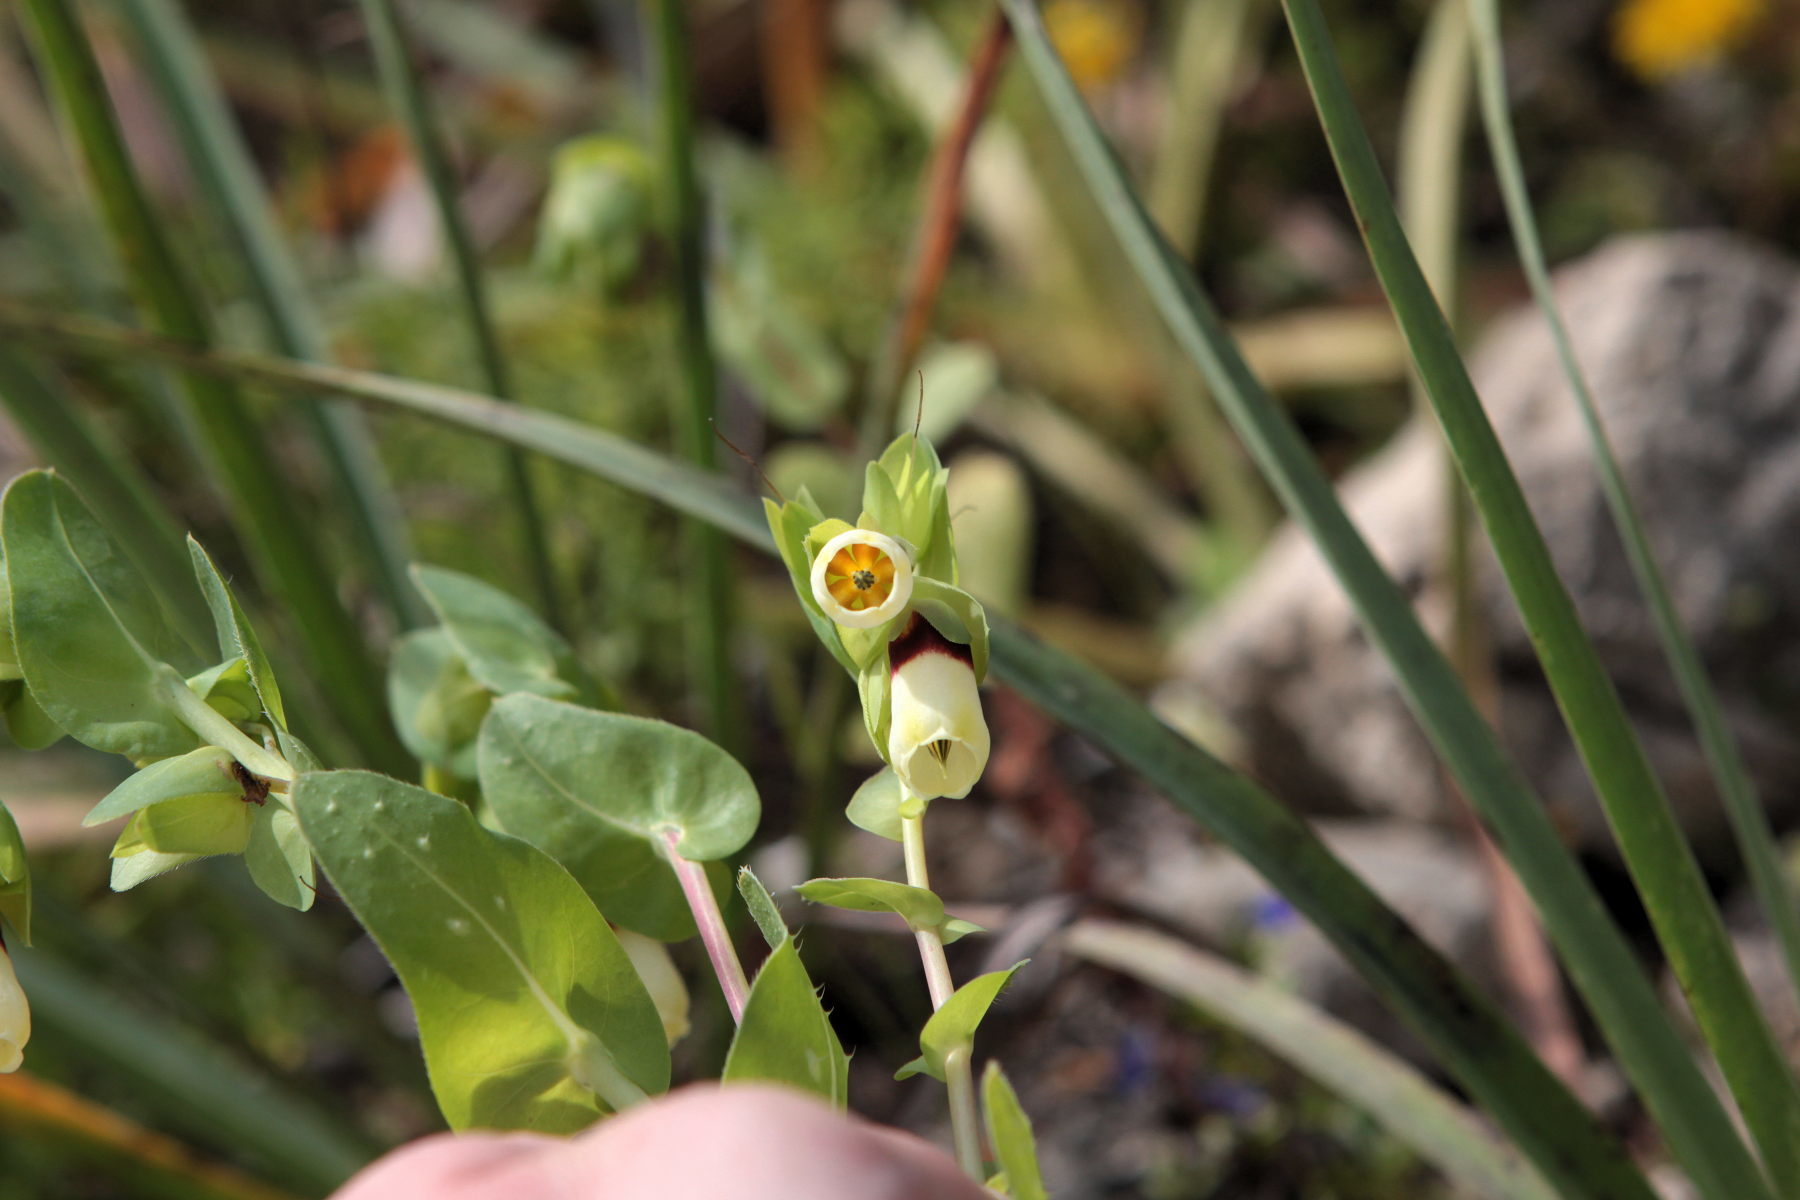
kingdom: Plantae
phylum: Tracheophyta
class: Magnoliopsida
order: Boraginales
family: Boraginaceae
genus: Cerinthe
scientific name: Cerinthe major
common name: Greater honeywort
